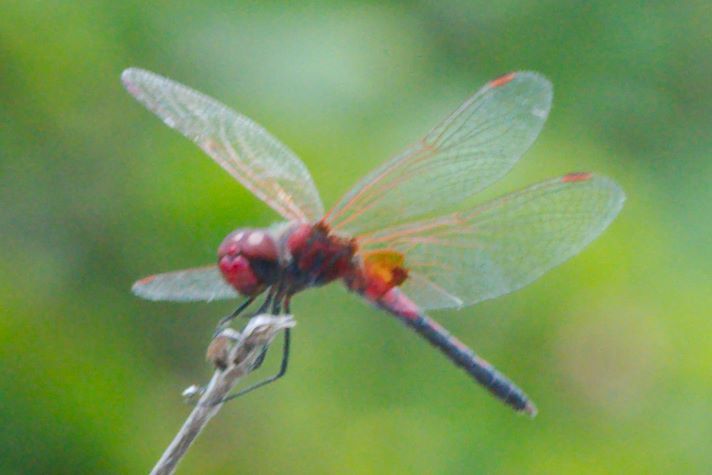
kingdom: Animalia
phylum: Arthropoda
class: Insecta
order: Odonata
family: Libellulidae
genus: Celithemis
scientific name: Celithemis bertha
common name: Red-veined pennant
